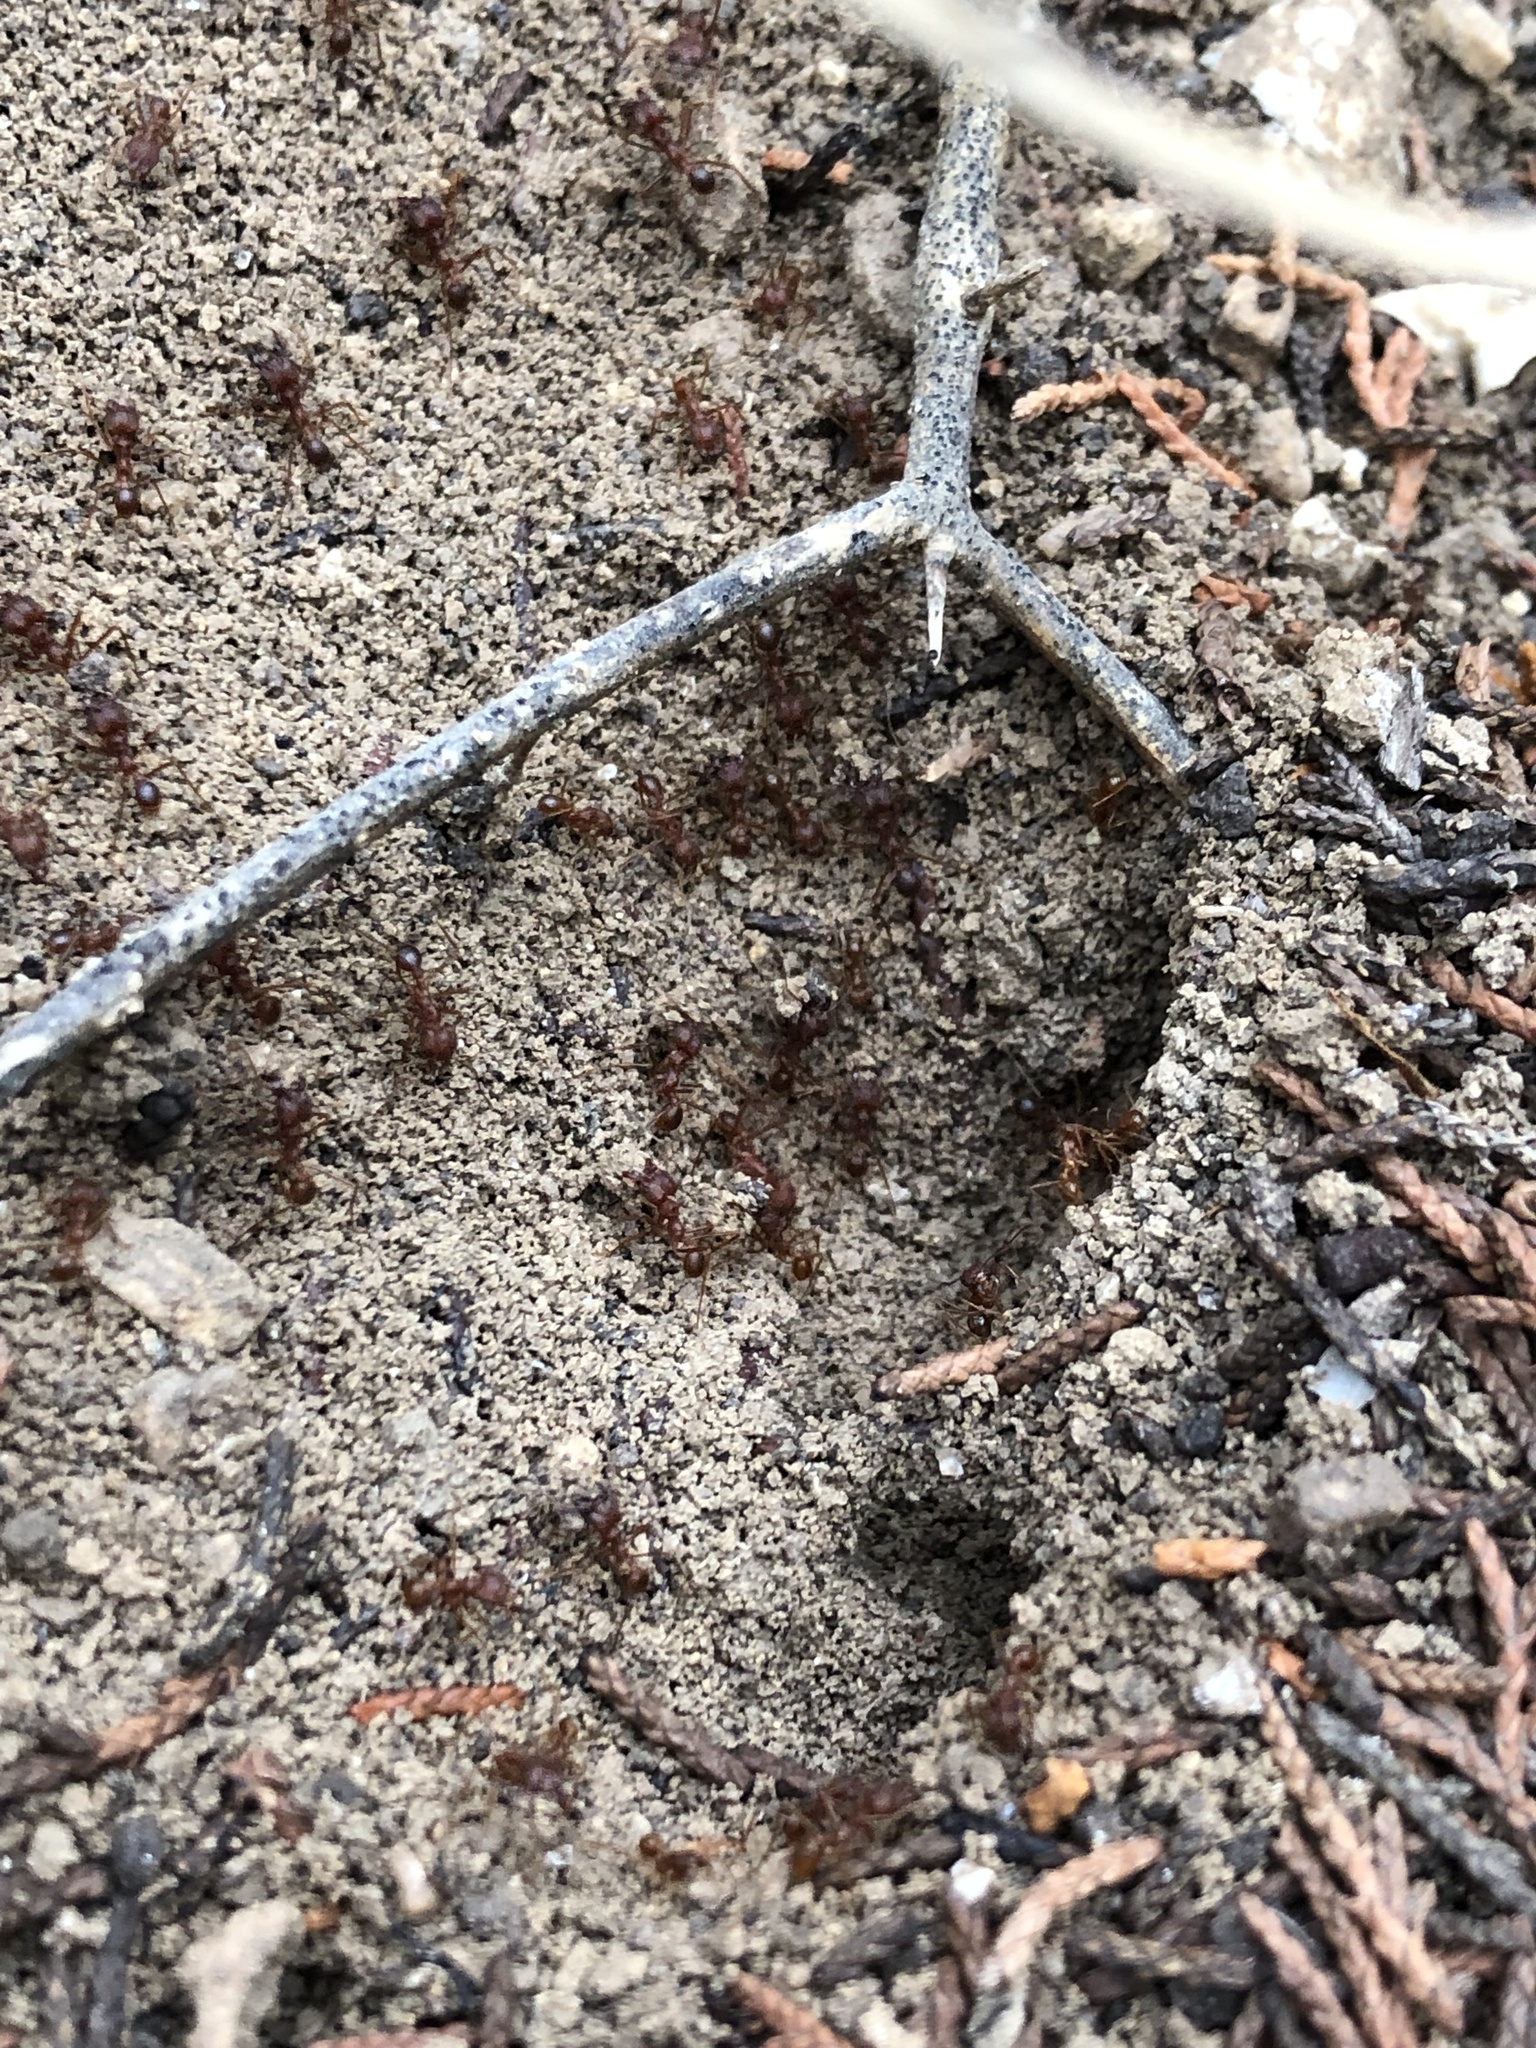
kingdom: Animalia
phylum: Arthropoda
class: Insecta
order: Hymenoptera
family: Formicidae
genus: Atta
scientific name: Atta texana
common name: Texas leafcutting ant
